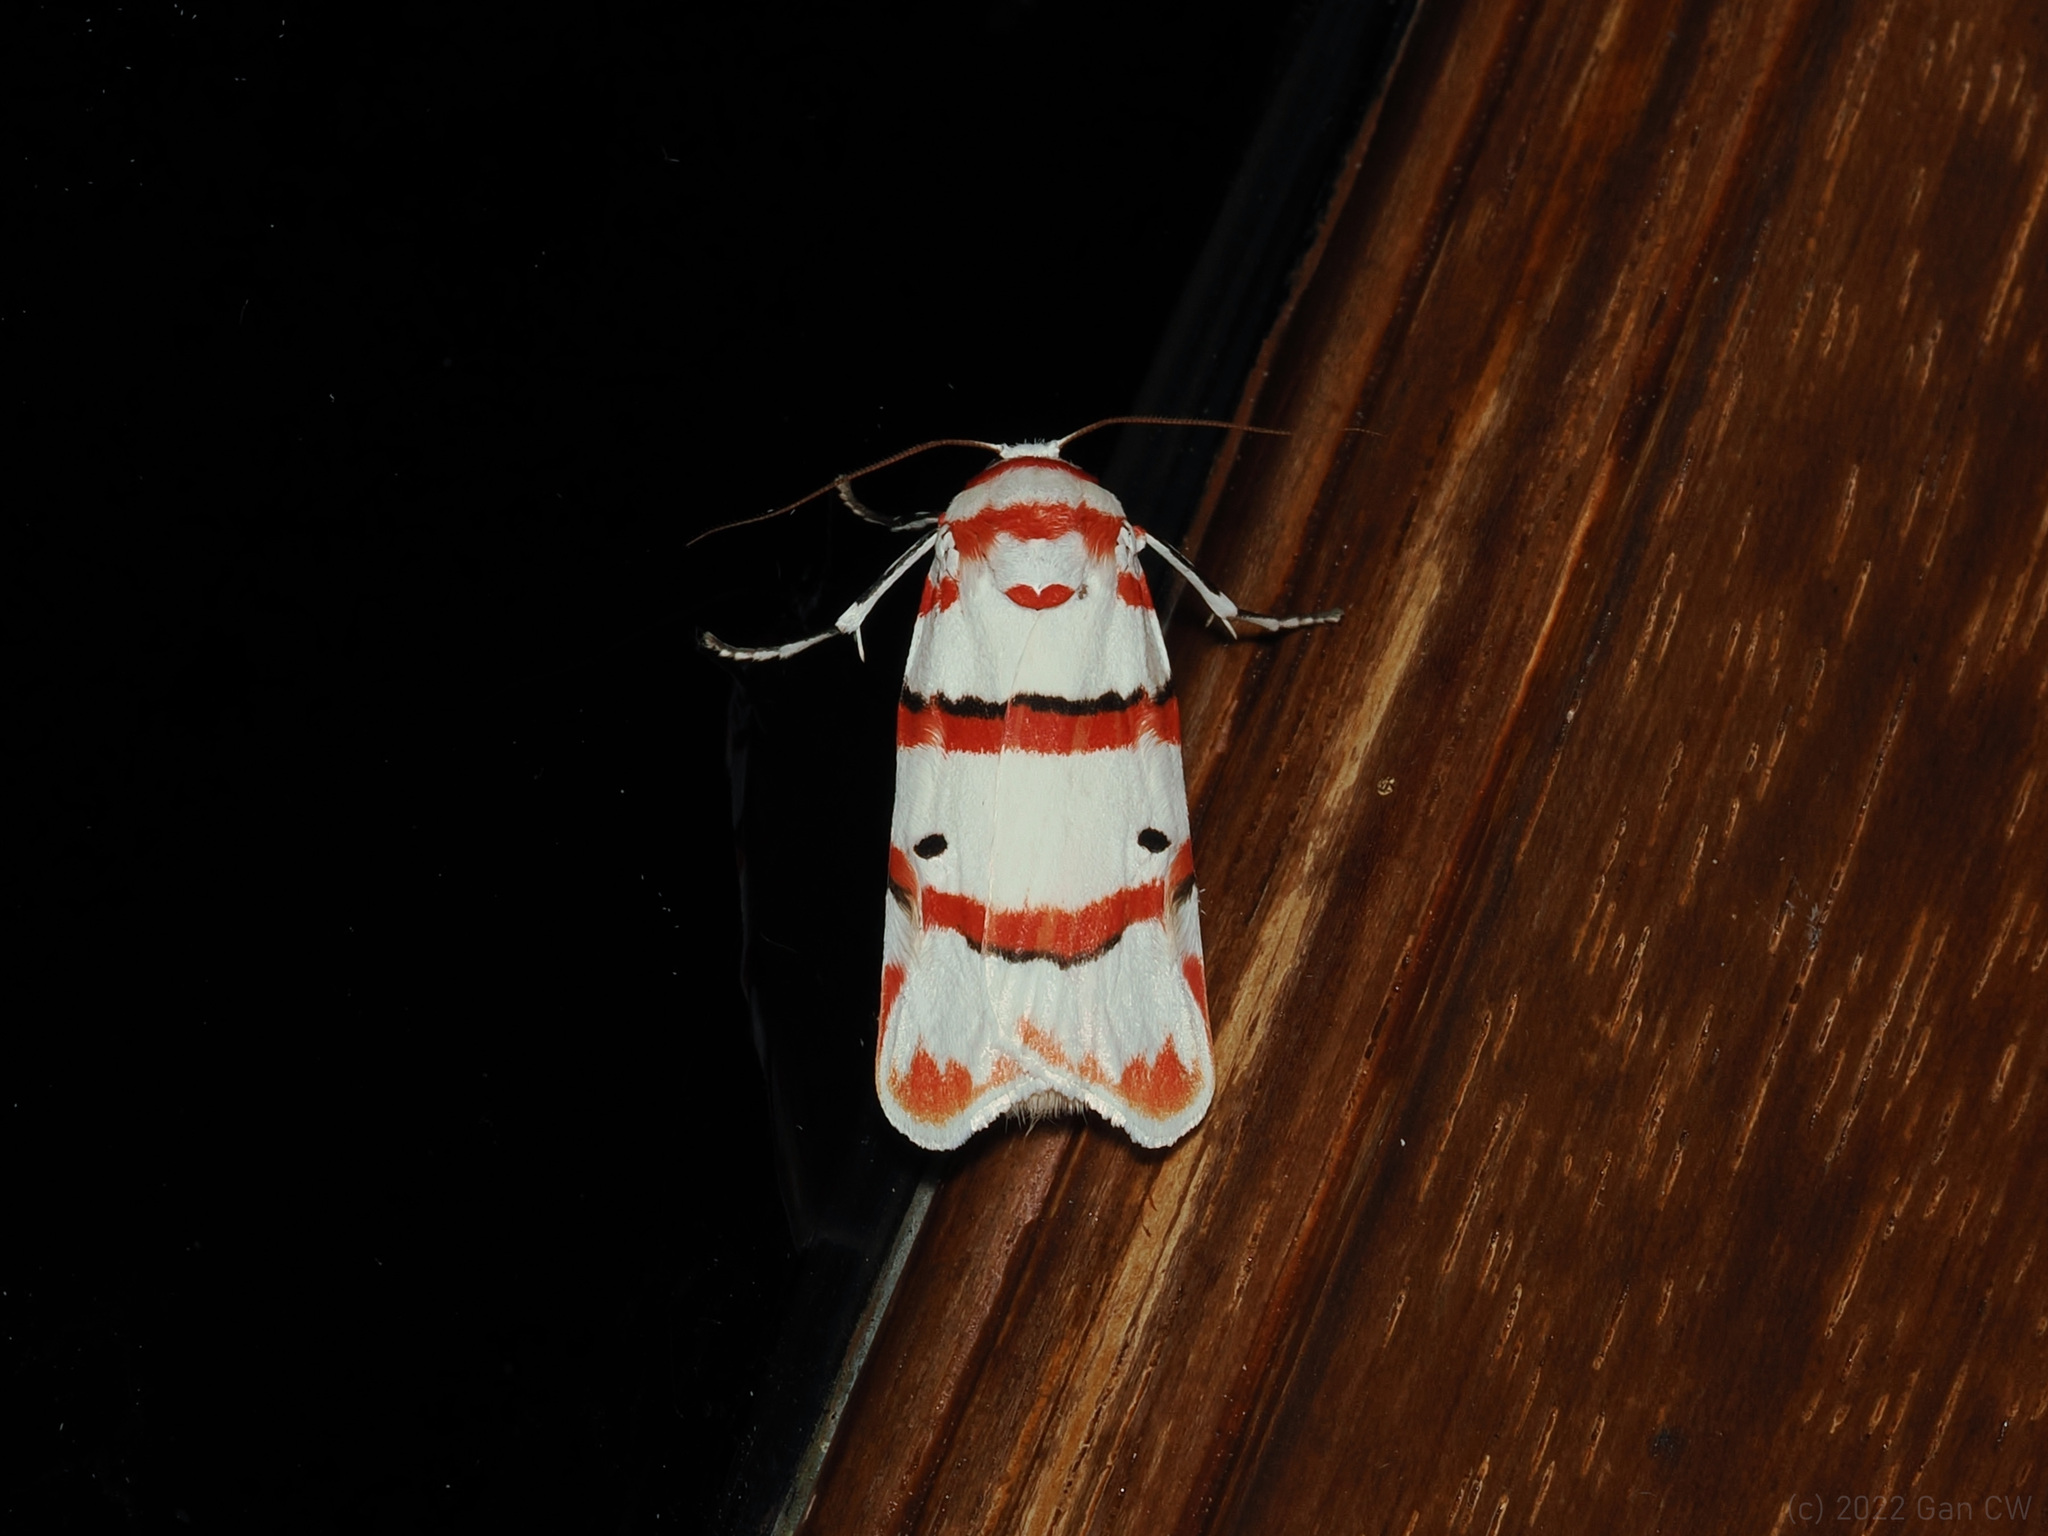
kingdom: Animalia
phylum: Arthropoda
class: Insecta
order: Lepidoptera
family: Erebidae
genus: Cyana
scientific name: Cyana perornata
